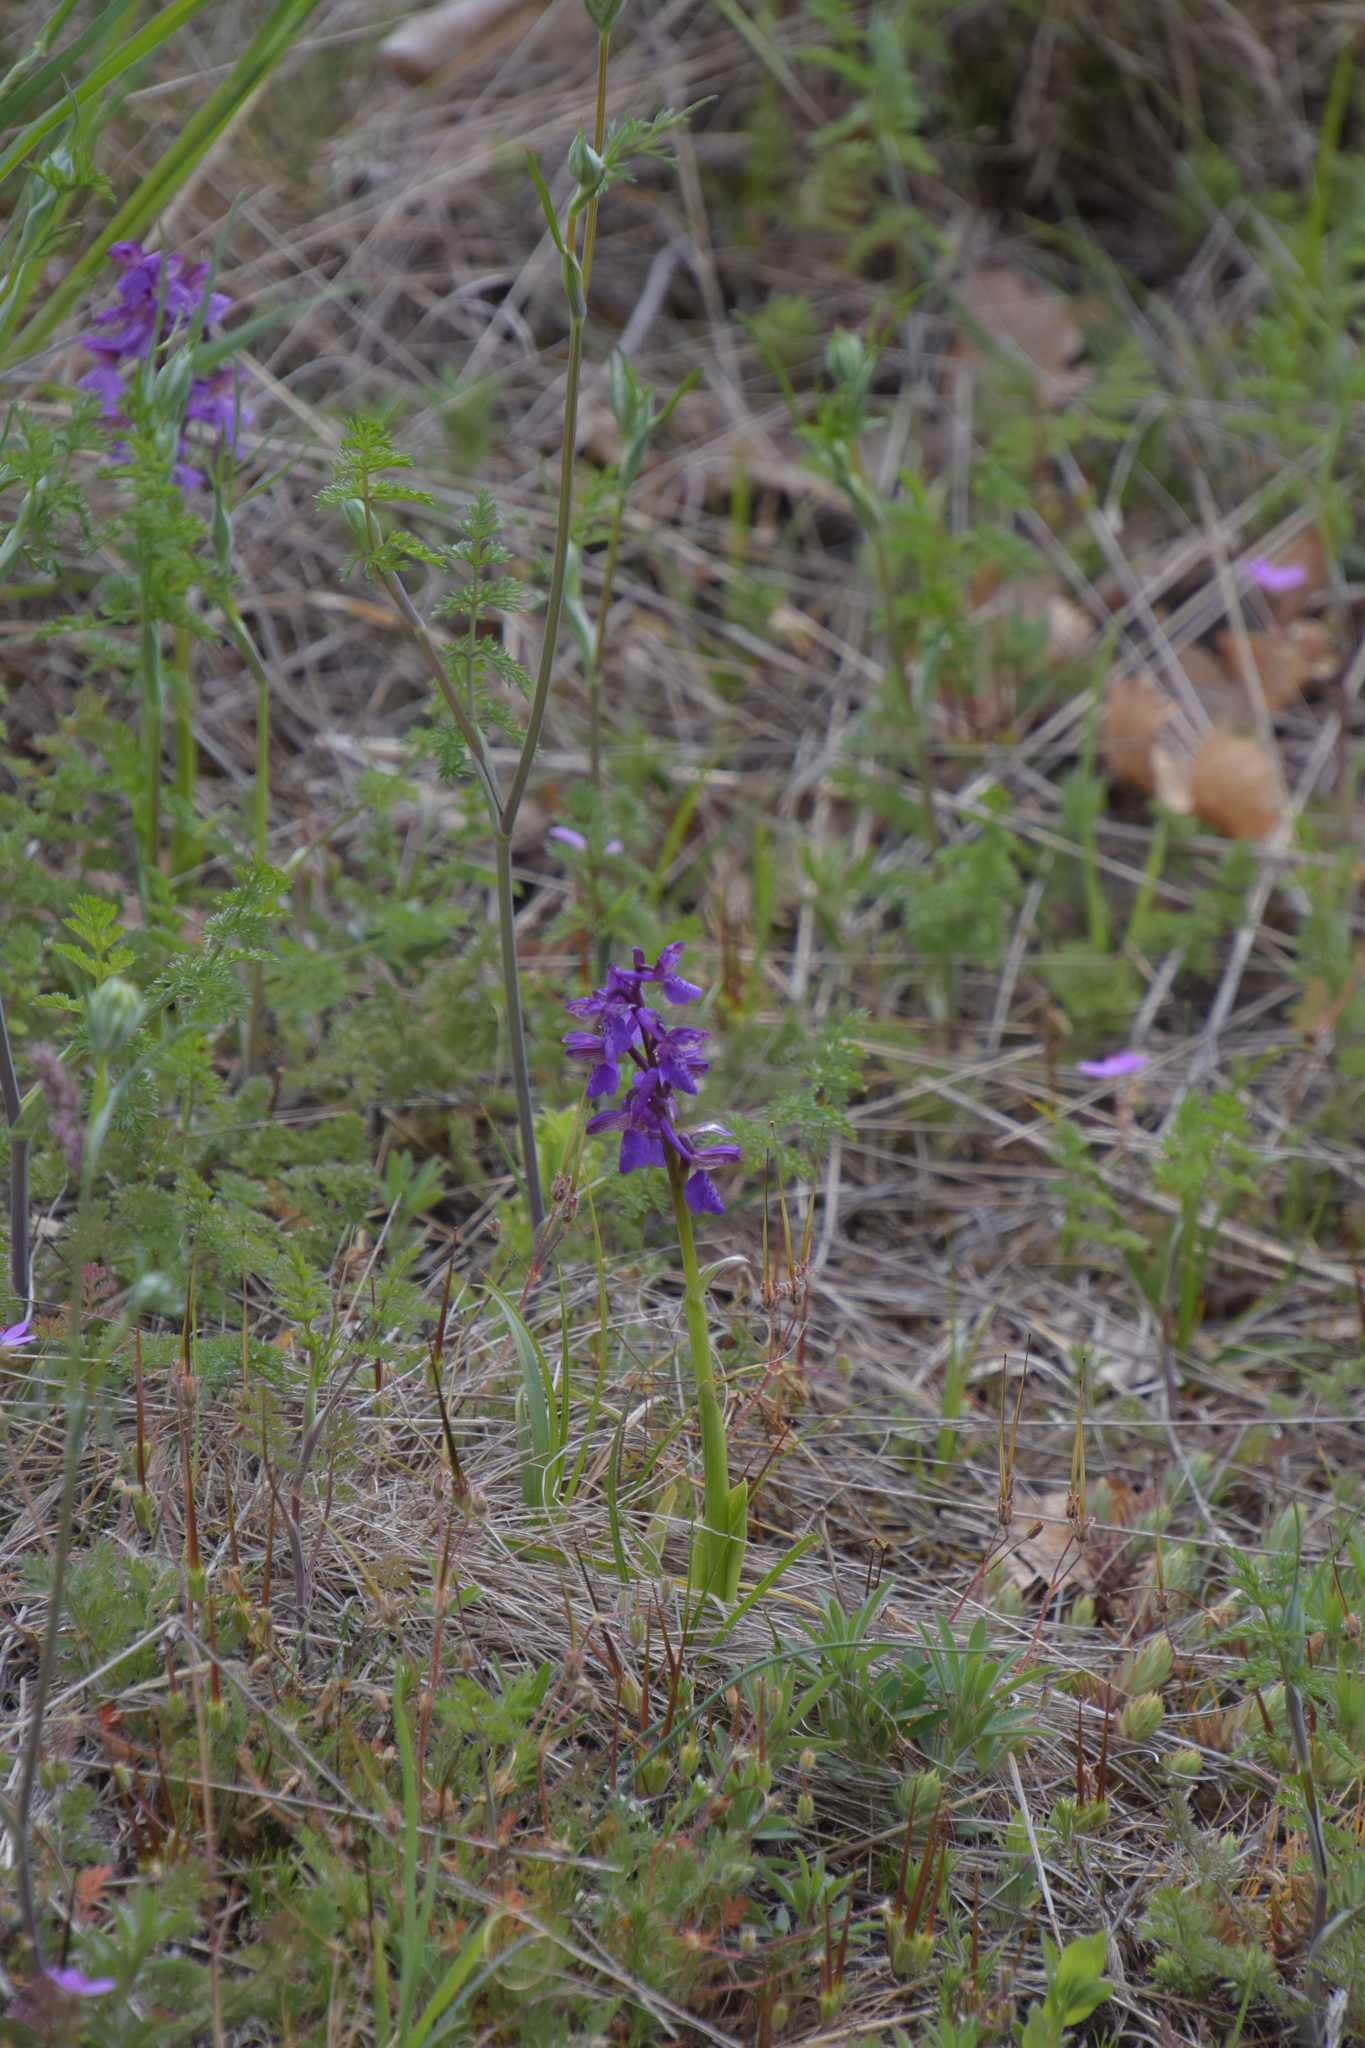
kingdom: Plantae
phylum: Tracheophyta
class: Liliopsida
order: Asparagales
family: Orchidaceae
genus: Anacamptis
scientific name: Anacamptis morio
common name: Green-winged orchid
